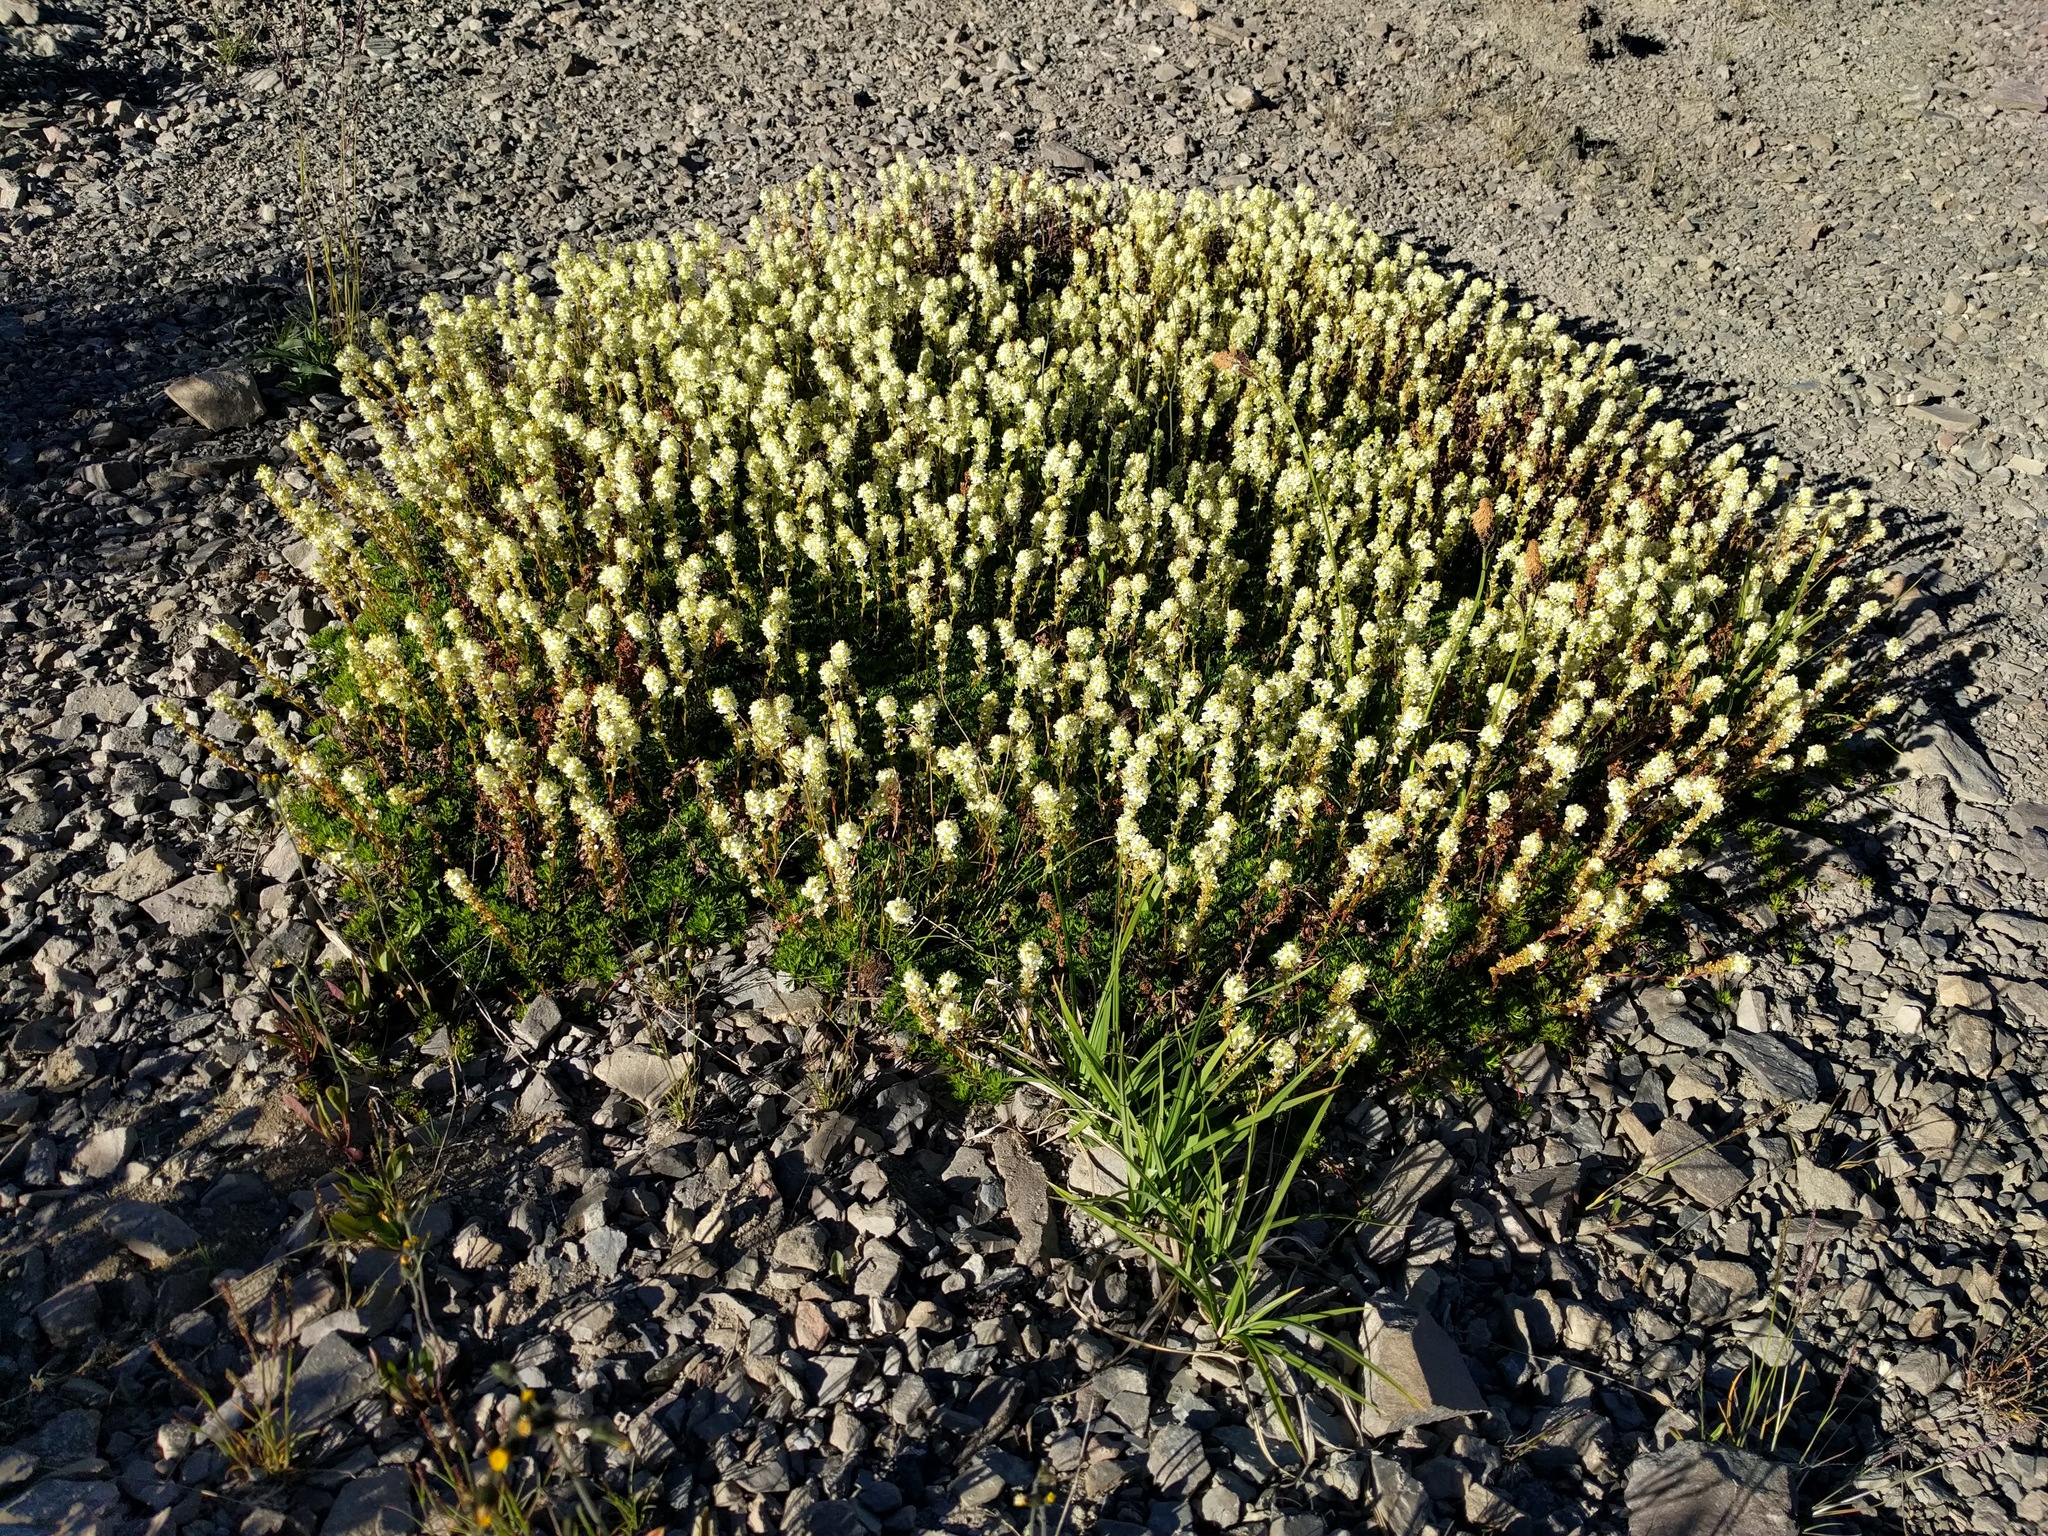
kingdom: Plantae
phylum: Tracheophyta
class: Magnoliopsida
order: Rosales
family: Rosaceae
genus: Luetkea
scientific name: Luetkea pectinata
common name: Partridgefoot
